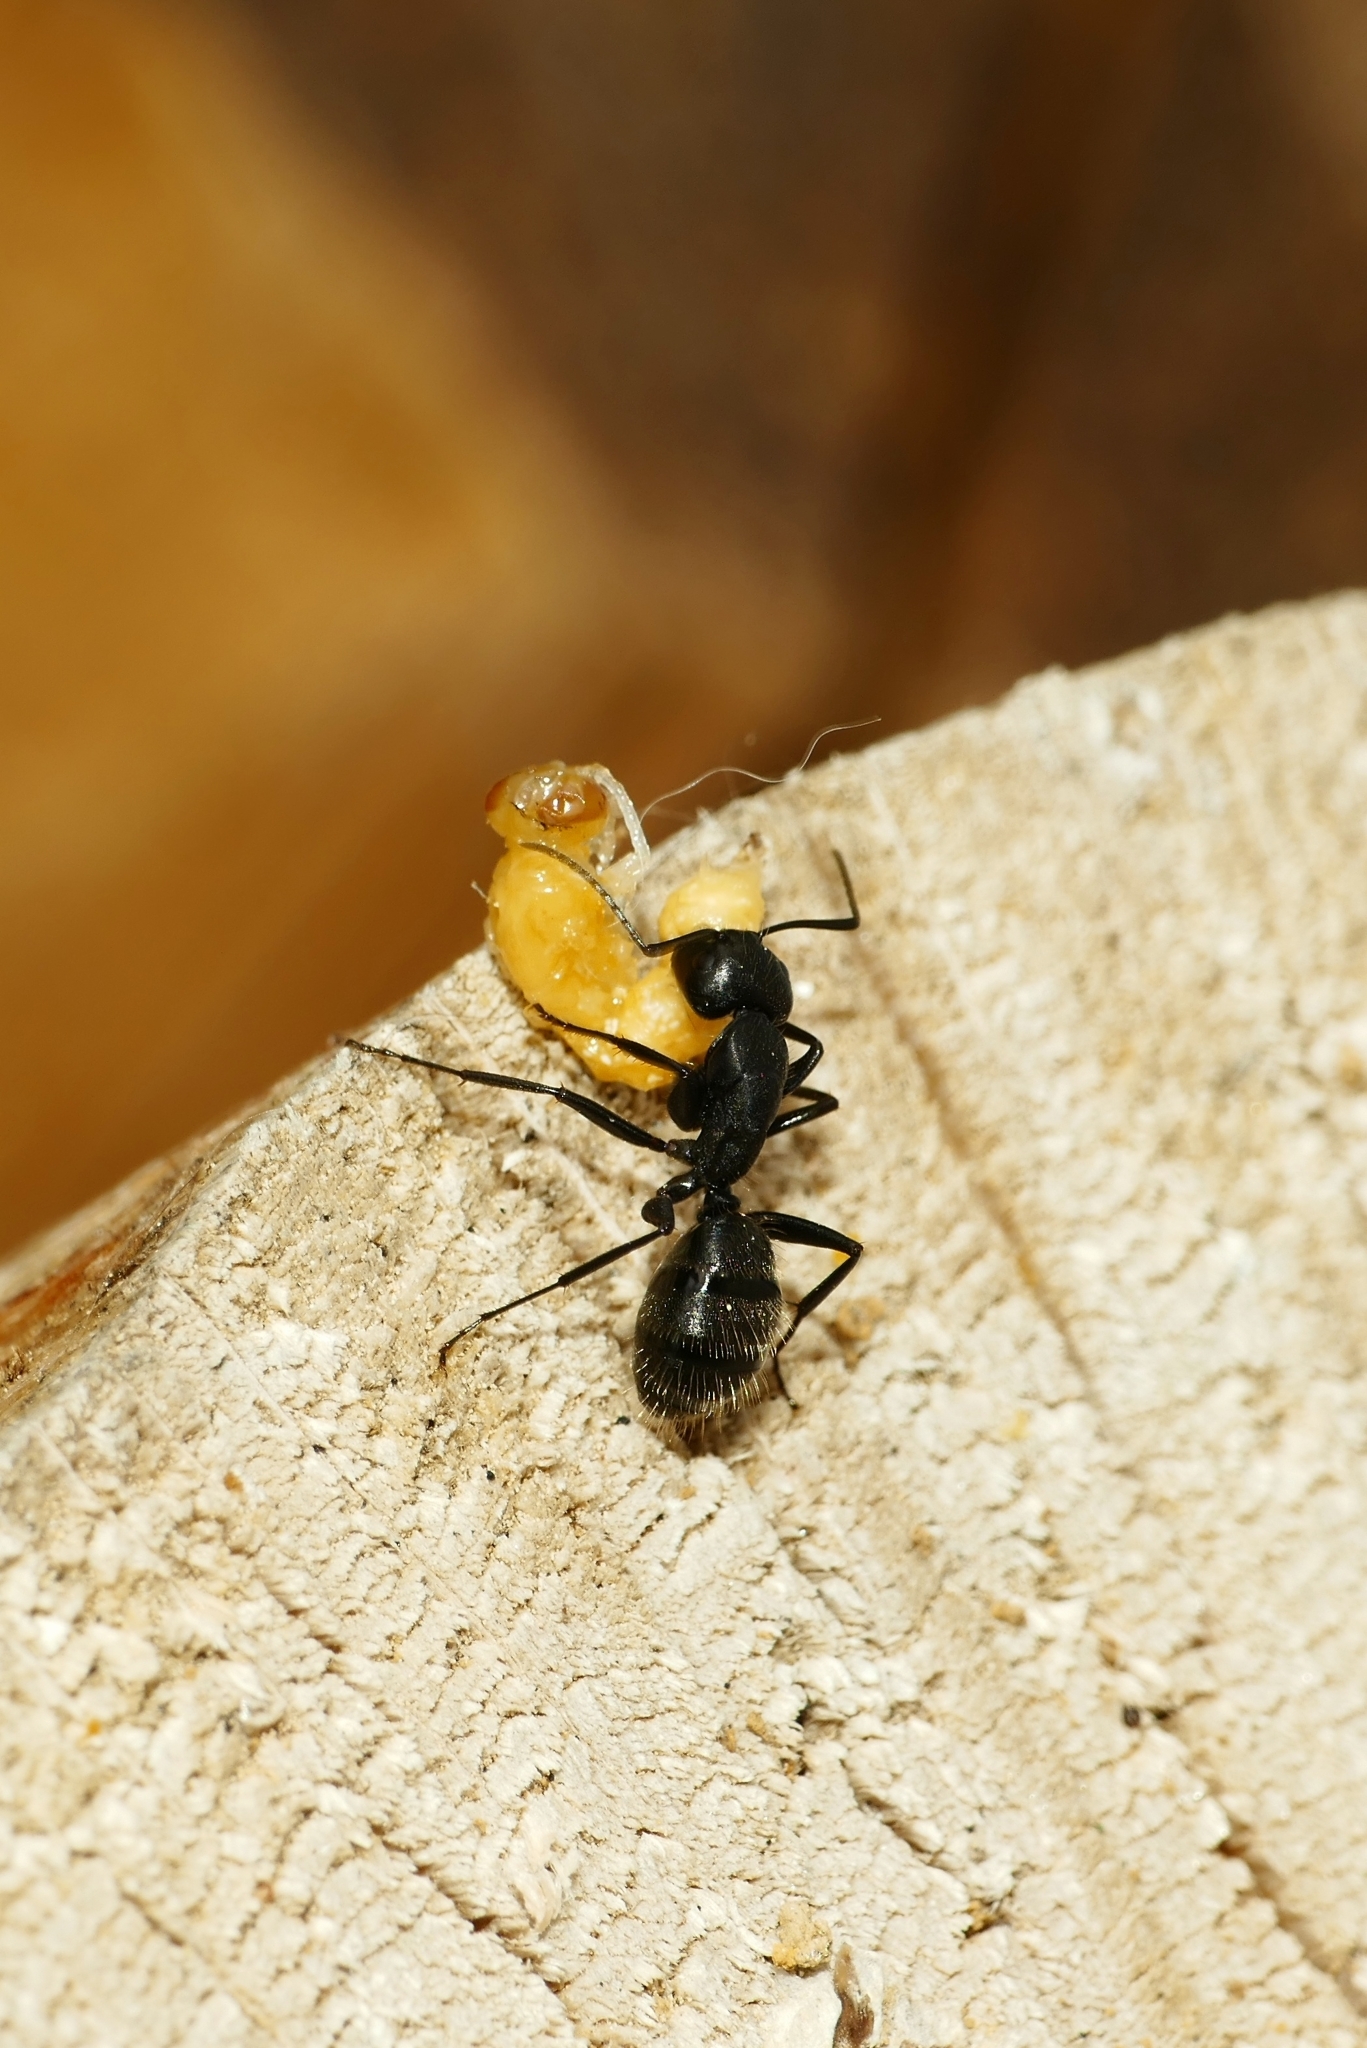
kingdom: Animalia
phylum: Arthropoda
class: Insecta
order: Hymenoptera
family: Formicidae
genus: Camponotus
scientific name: Camponotus vagus
